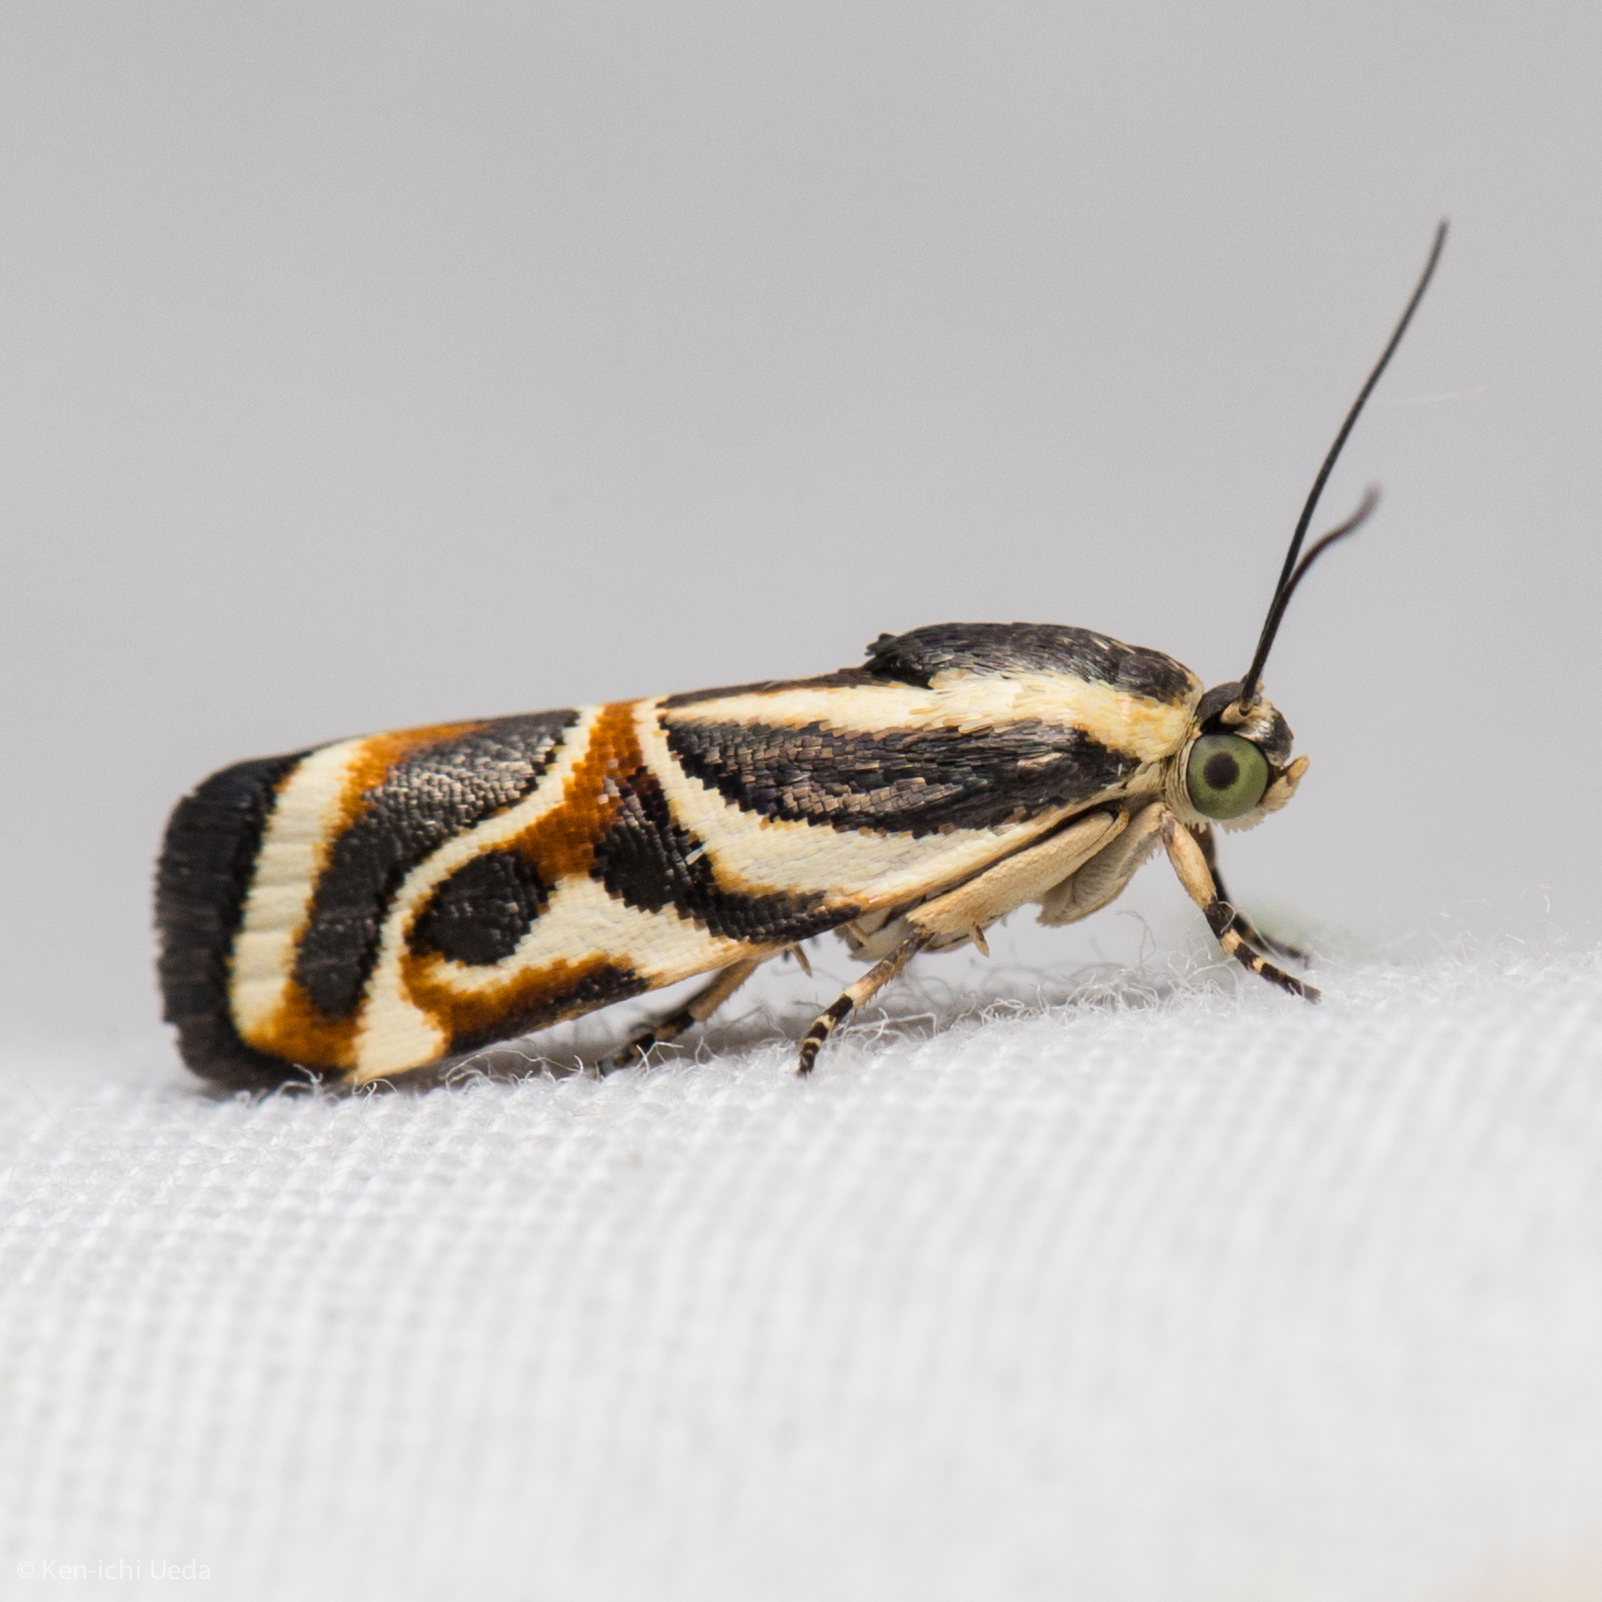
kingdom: Animalia
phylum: Arthropoda
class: Insecta
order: Lepidoptera
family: Noctuidae
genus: Spragueia
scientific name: Spragueia magnifica
